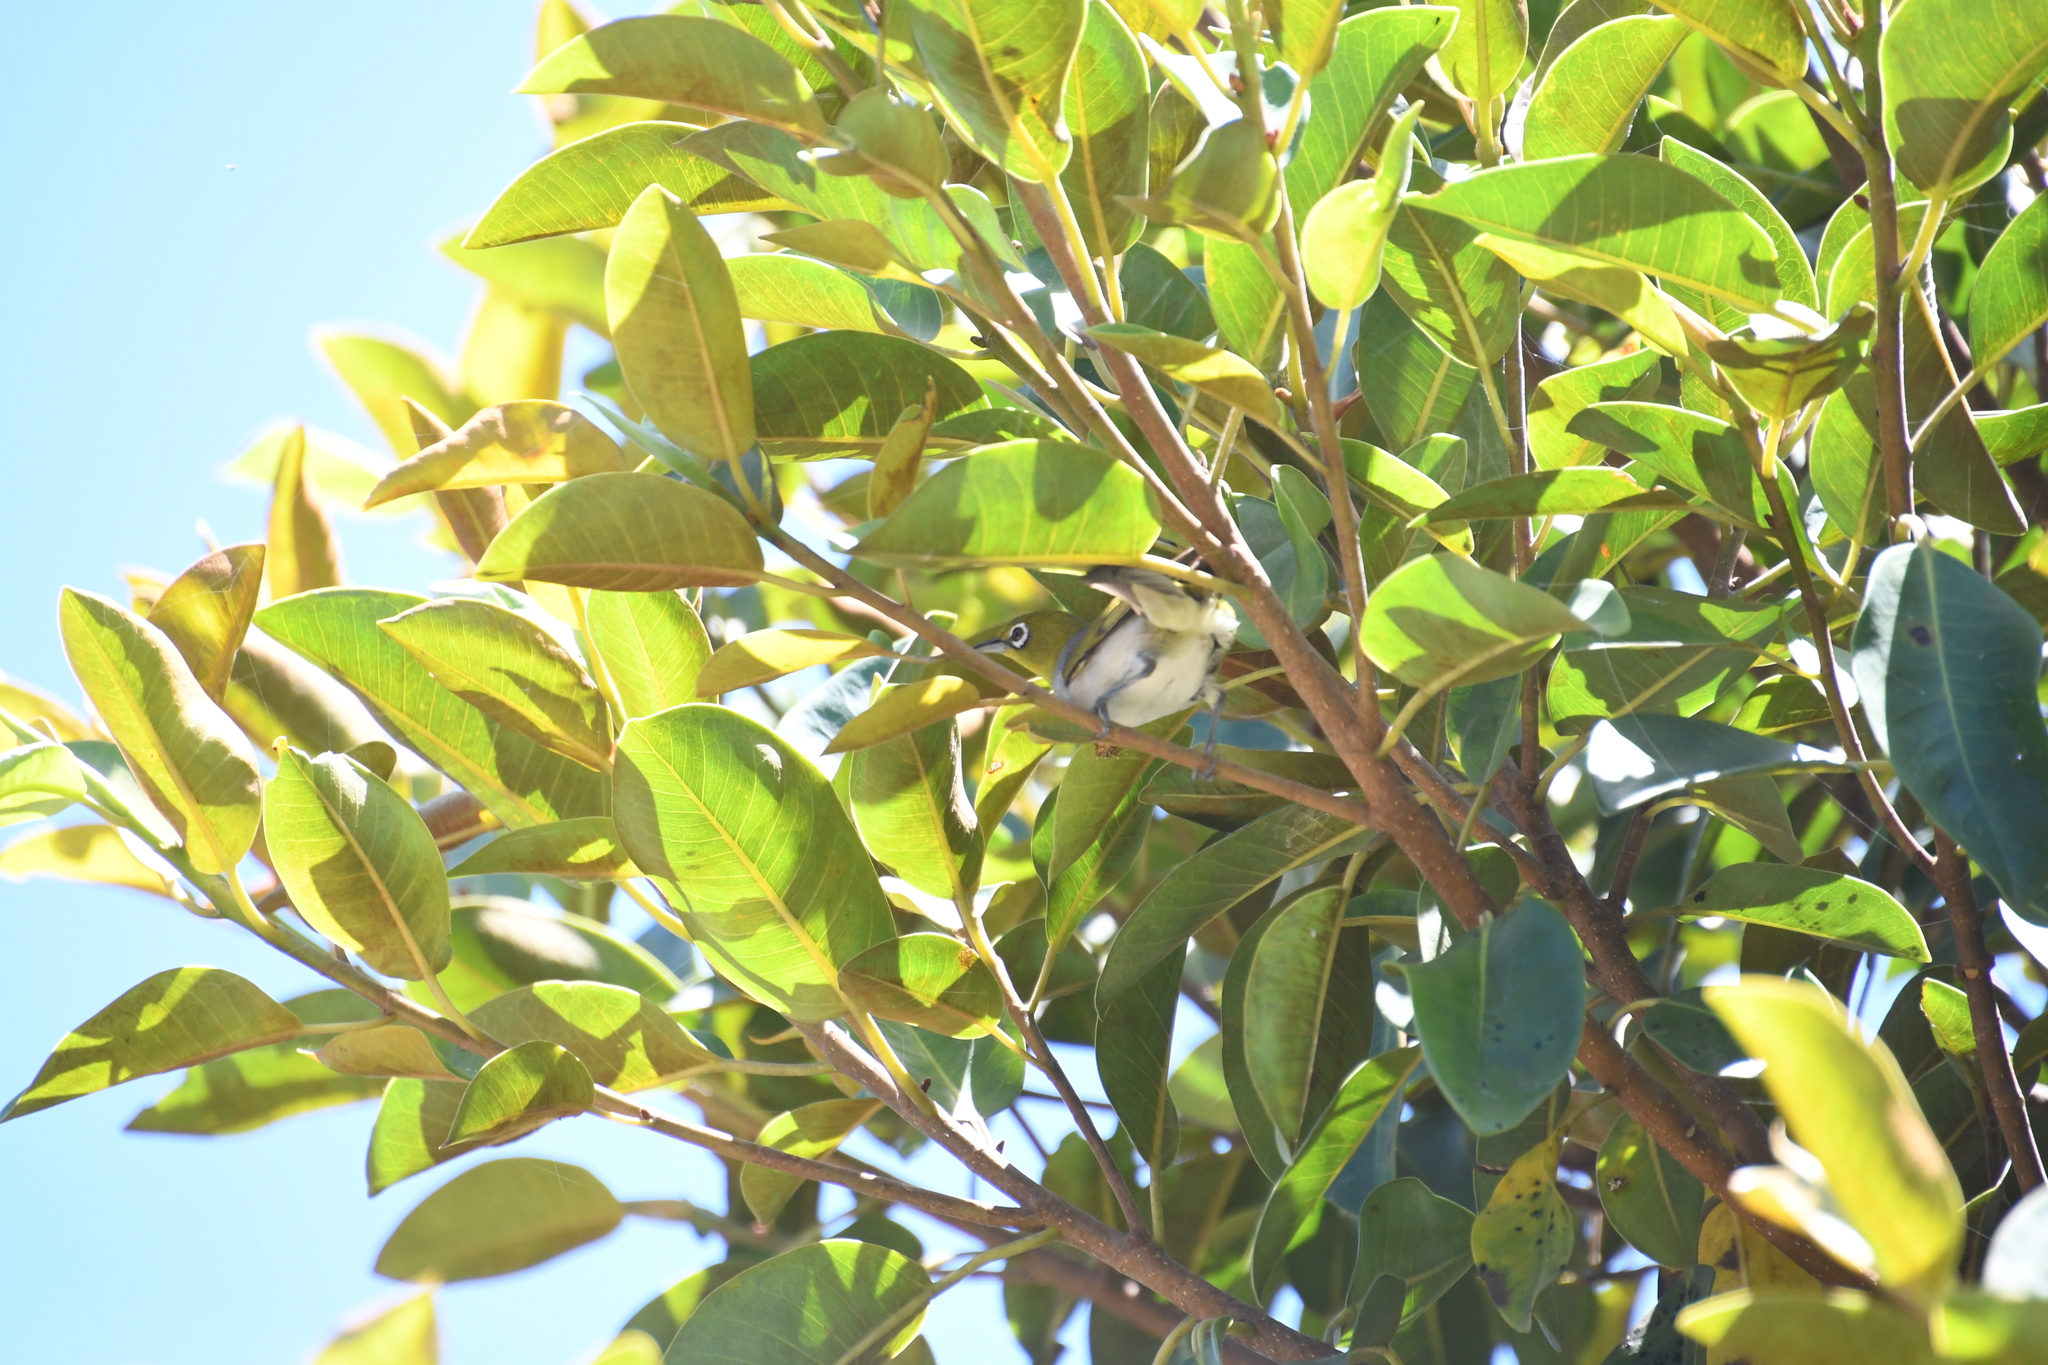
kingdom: Animalia
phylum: Chordata
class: Aves
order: Passeriformes
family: Zosteropidae
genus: Zosterops
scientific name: Zosterops lateralis
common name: Silvereye
